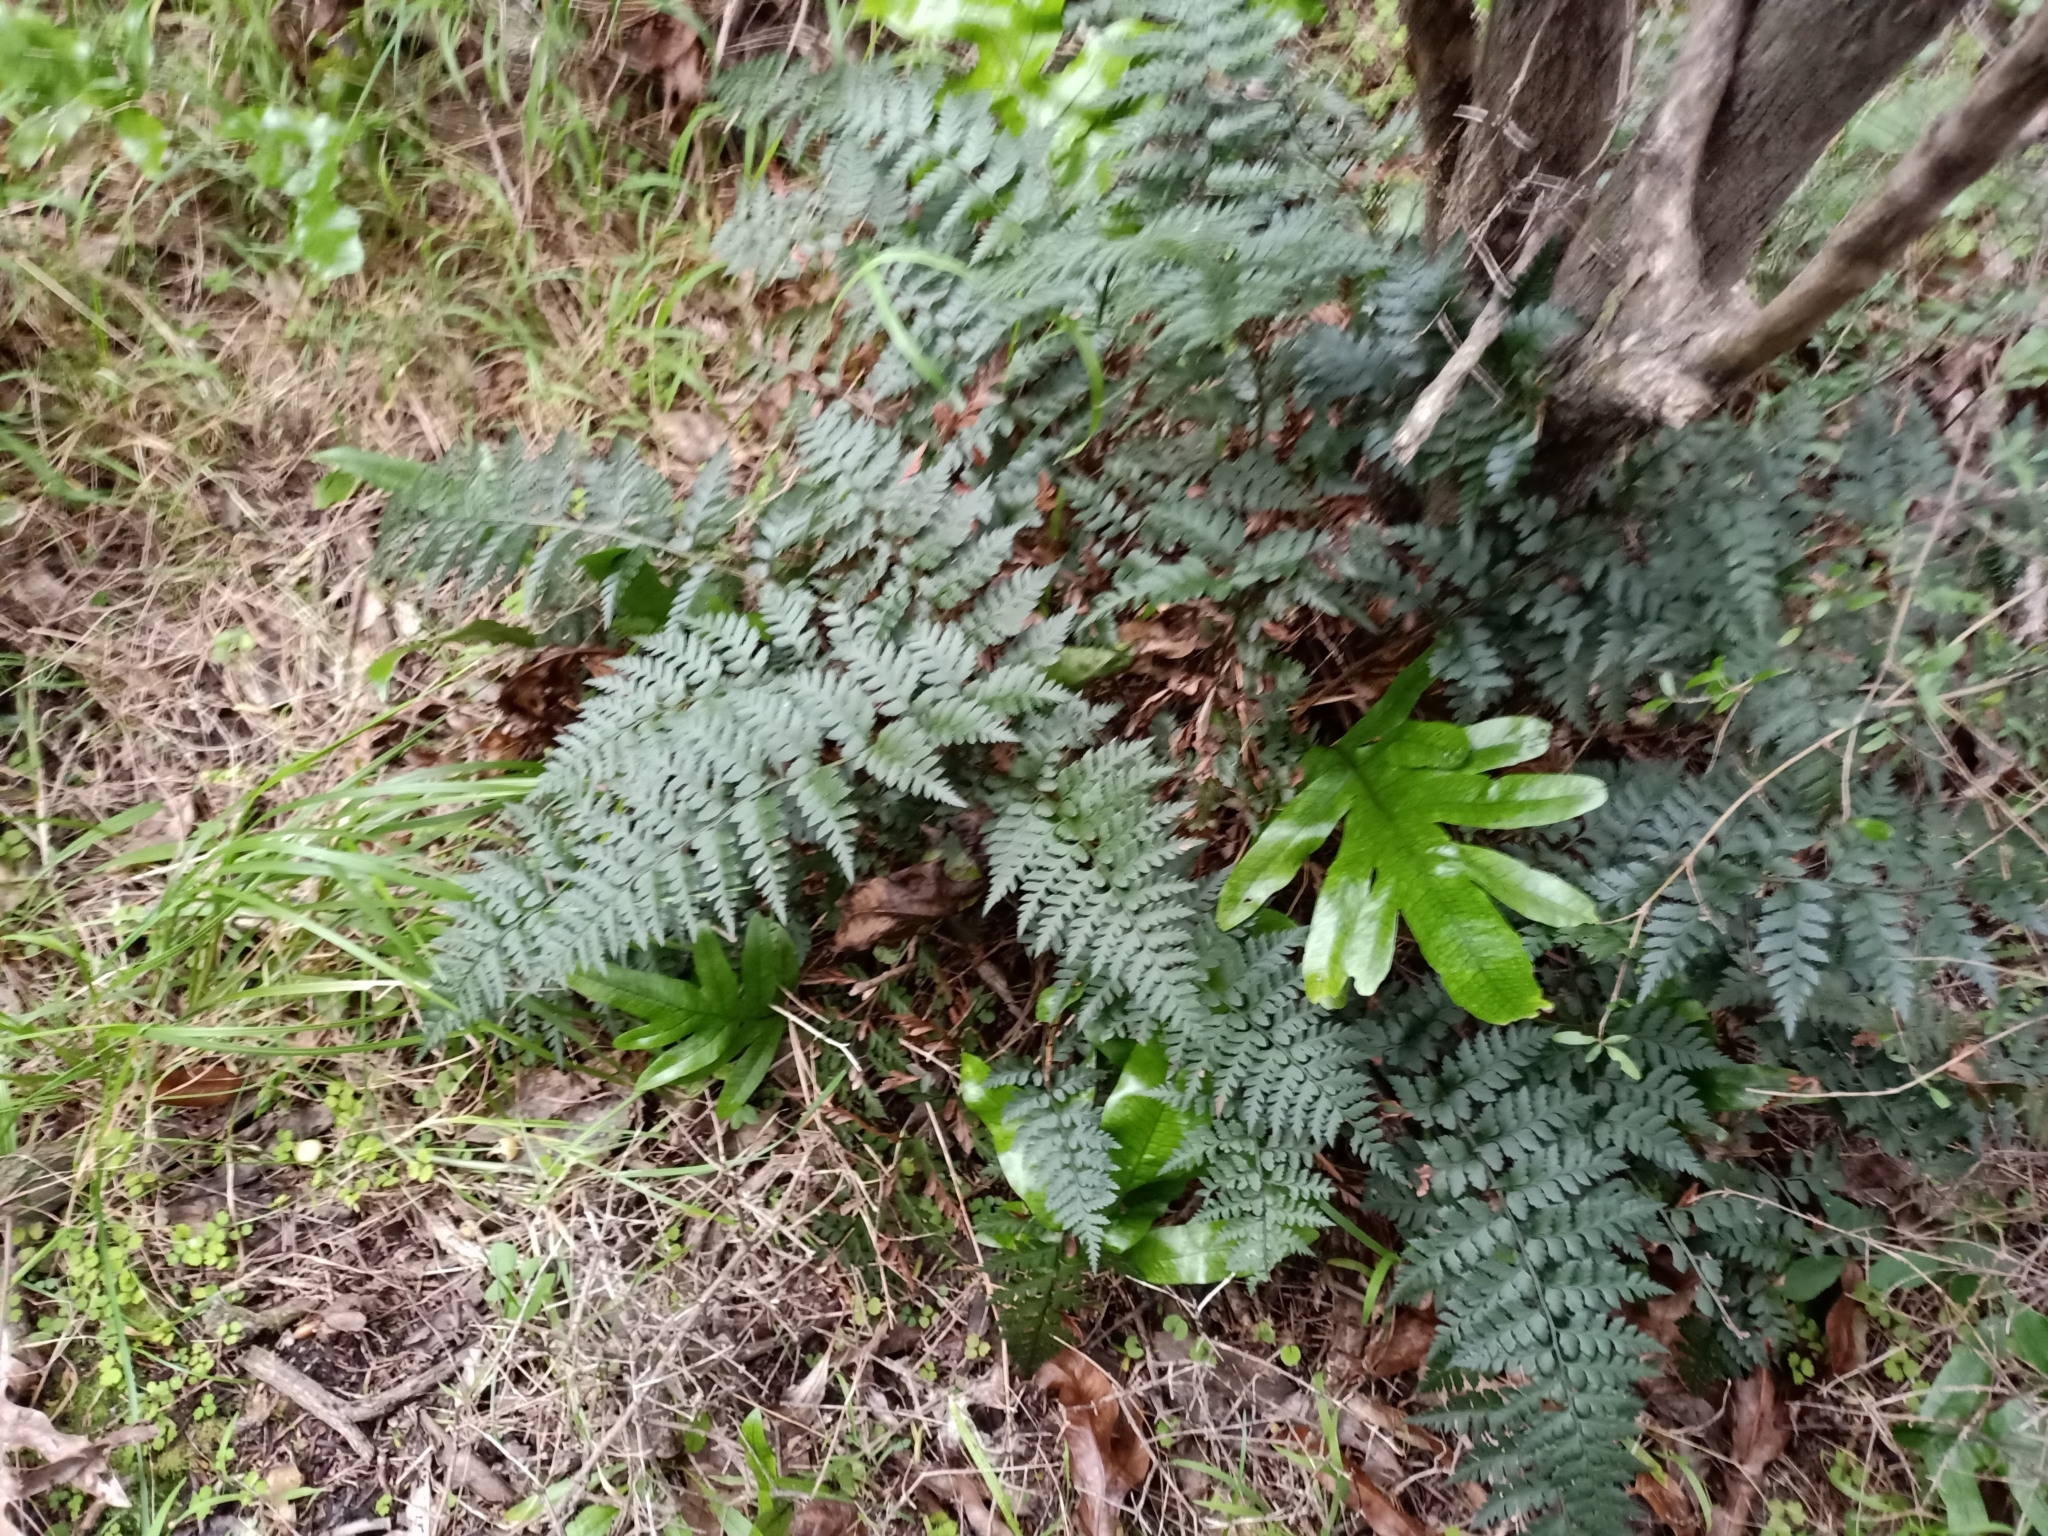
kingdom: Plantae
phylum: Tracheophyta
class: Polypodiopsida
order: Polypodiales
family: Dryopteridaceae
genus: Polystichum
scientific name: Polystichum oculatum
